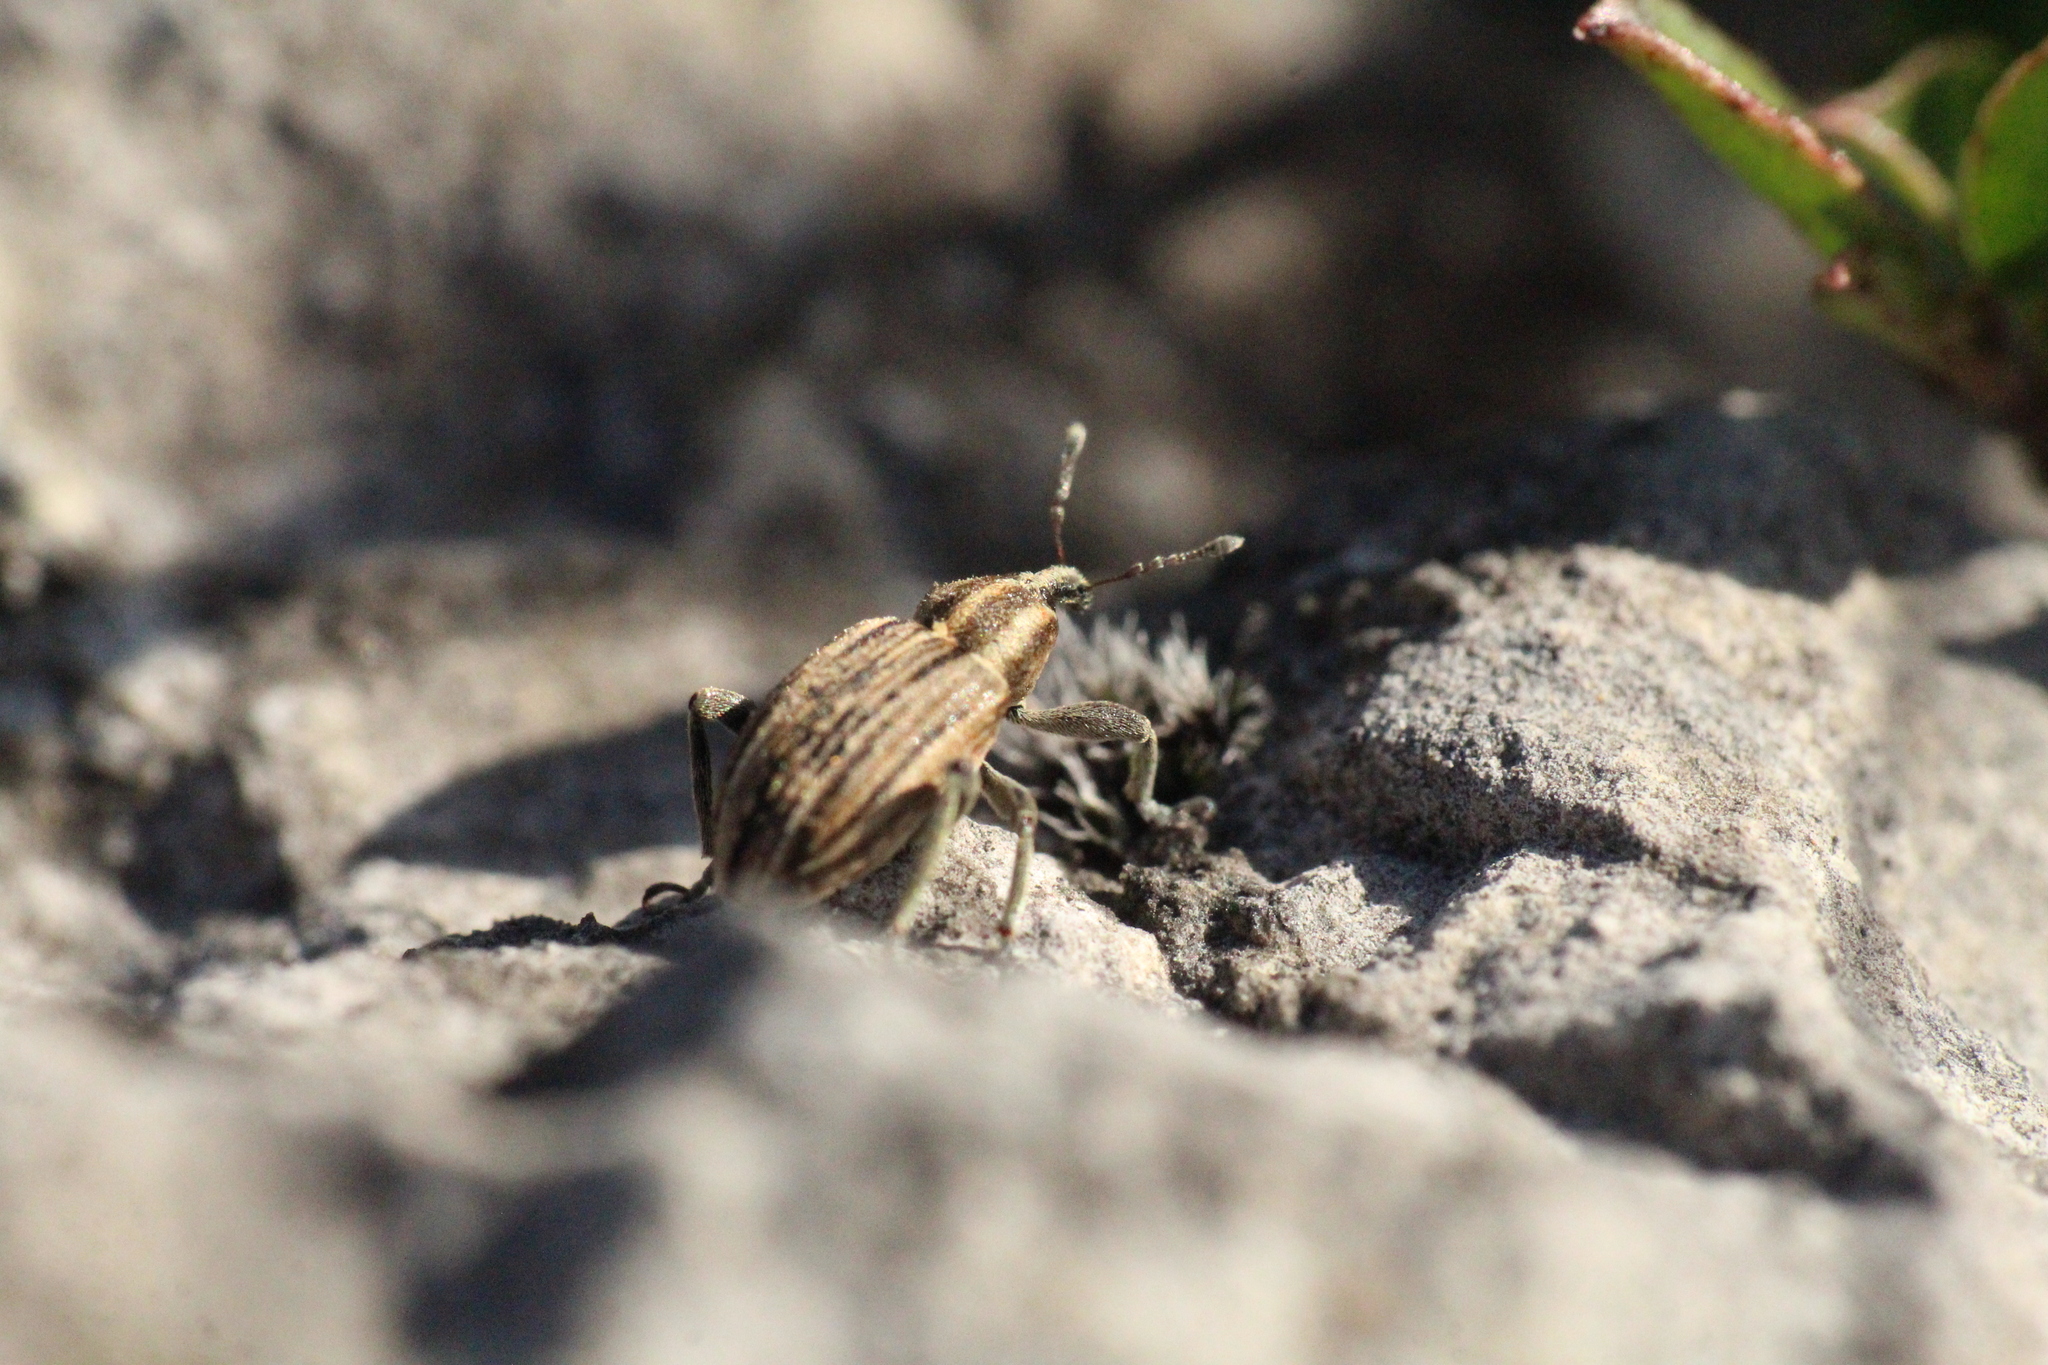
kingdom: Animalia
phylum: Arthropoda
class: Insecta
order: Coleoptera
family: Curculionidae
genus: Hypera
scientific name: Hypera arator
